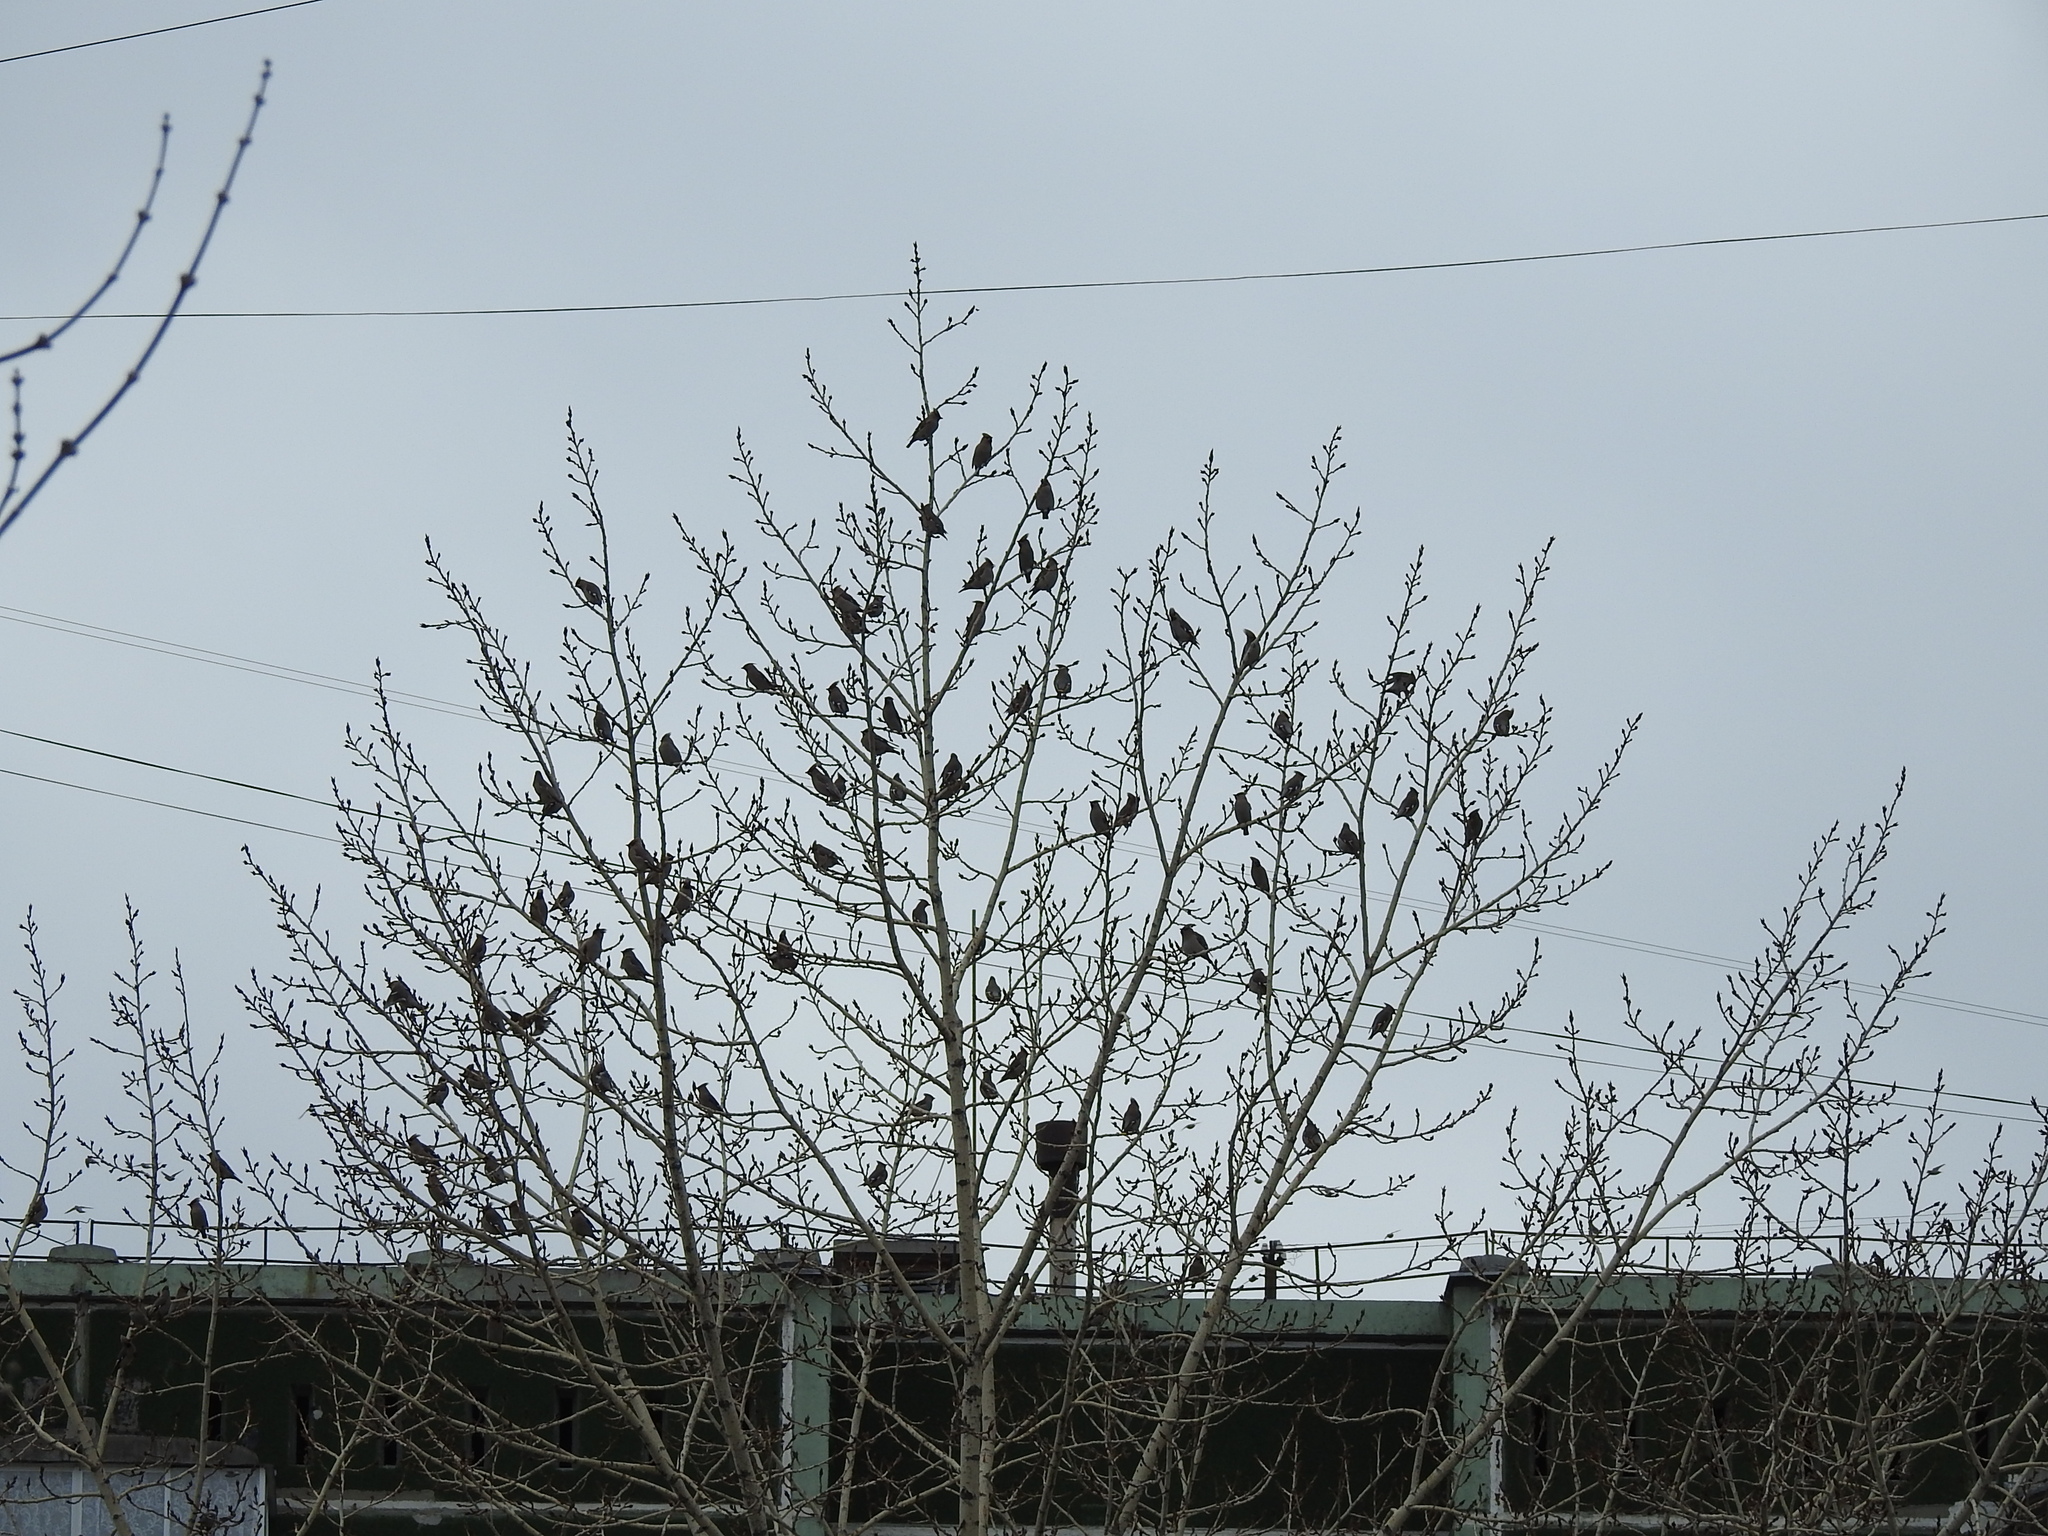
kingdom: Animalia
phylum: Chordata
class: Aves
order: Passeriformes
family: Bombycillidae
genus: Bombycilla
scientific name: Bombycilla garrulus
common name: Bohemian waxwing
